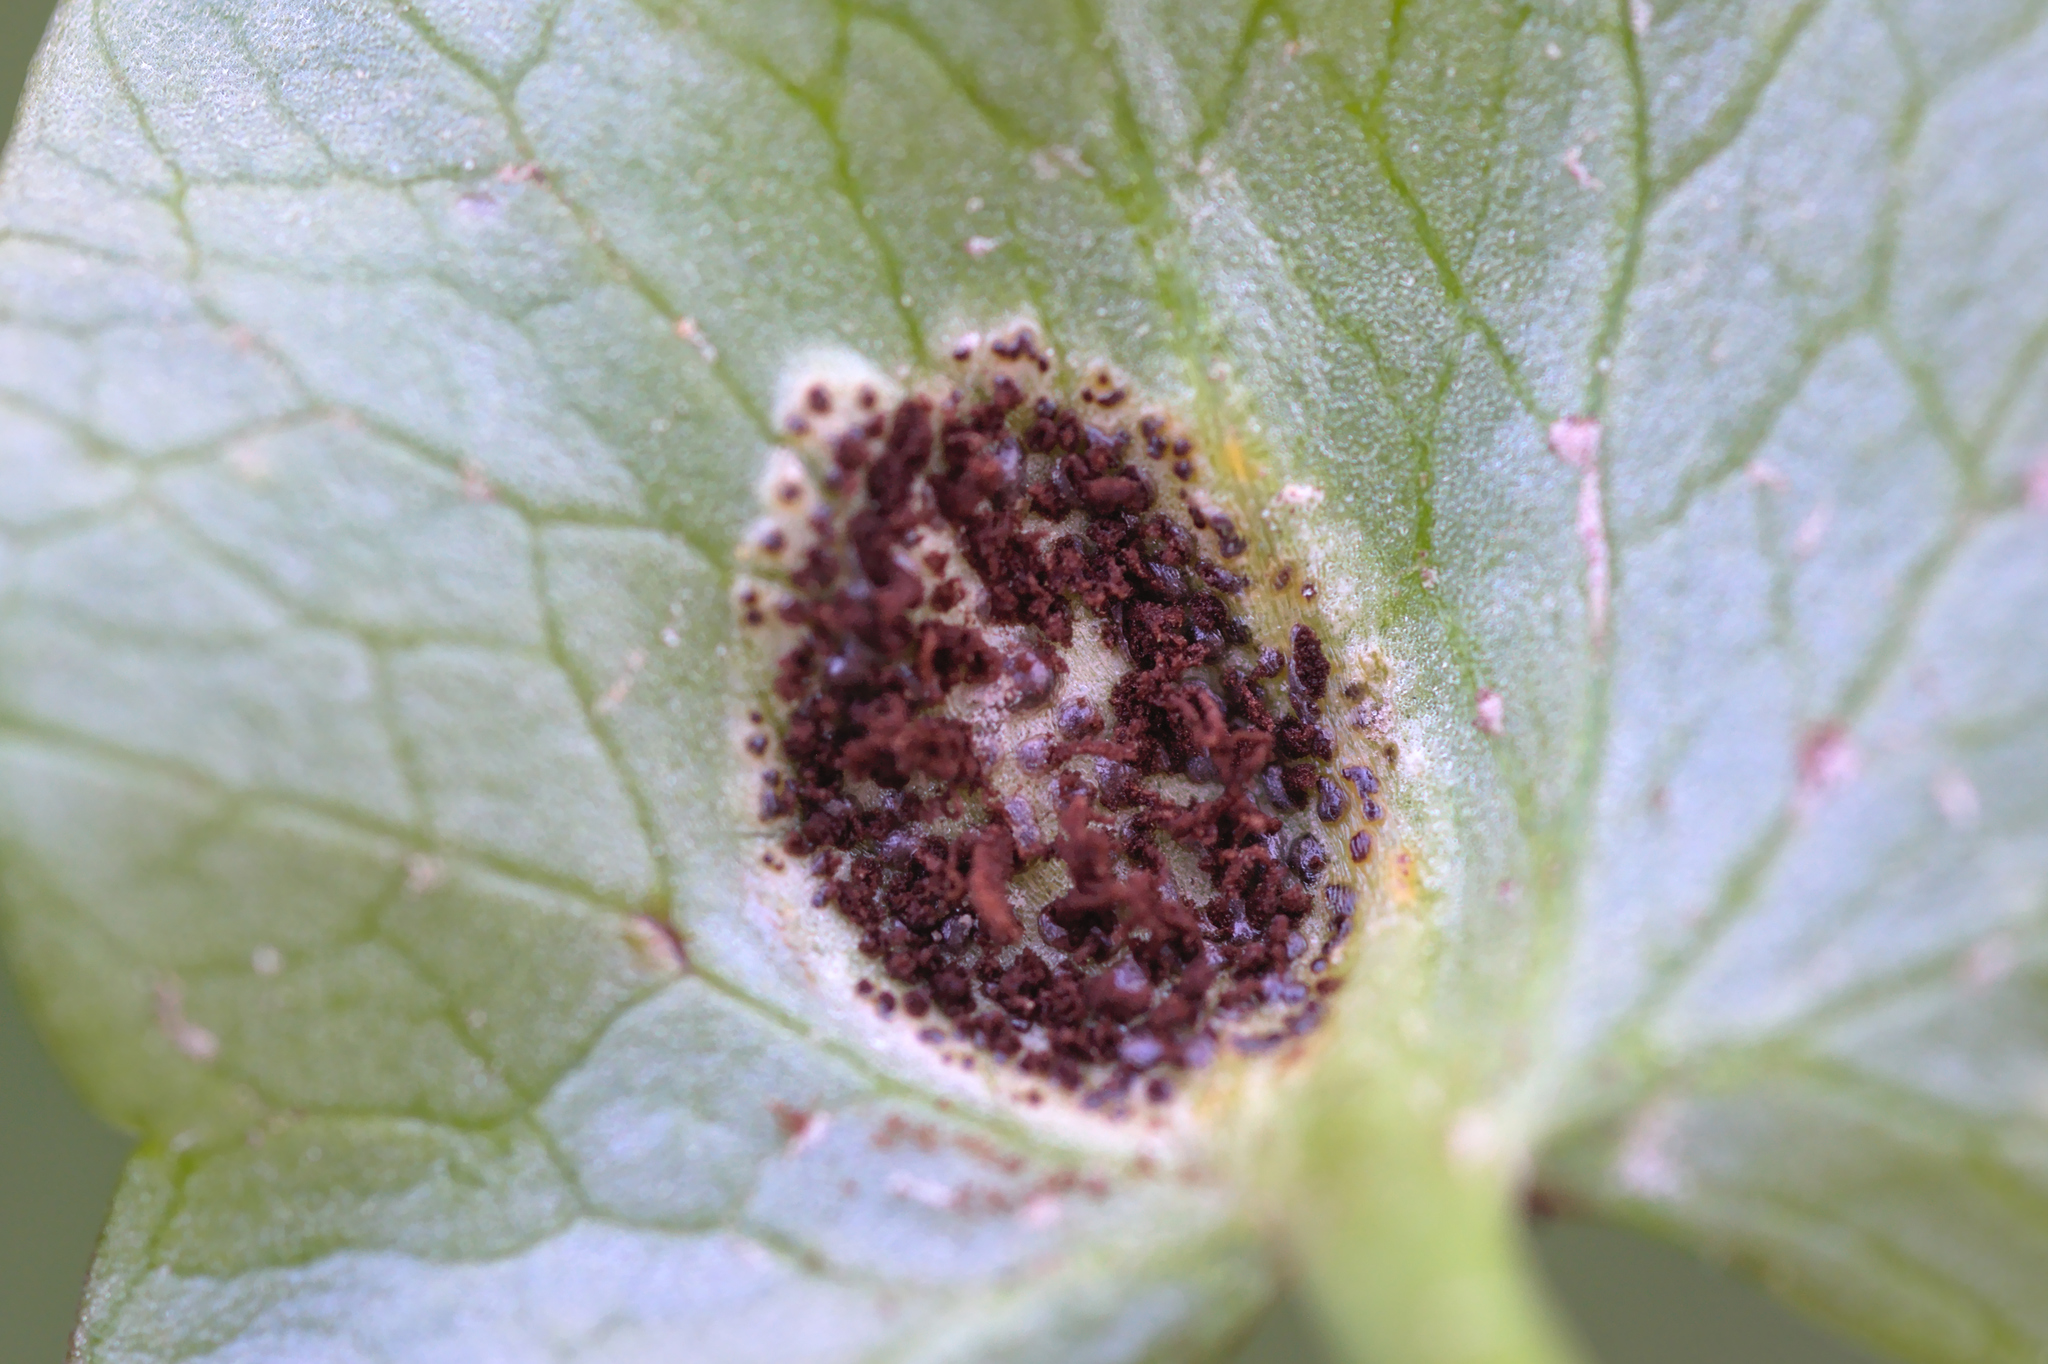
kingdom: Fungi
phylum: Basidiomycota
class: Pucciniomycetes
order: Pucciniales
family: Pucciniaceae
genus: Uromyces
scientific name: Uromyces ficariae
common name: Bitter chocolate rust
